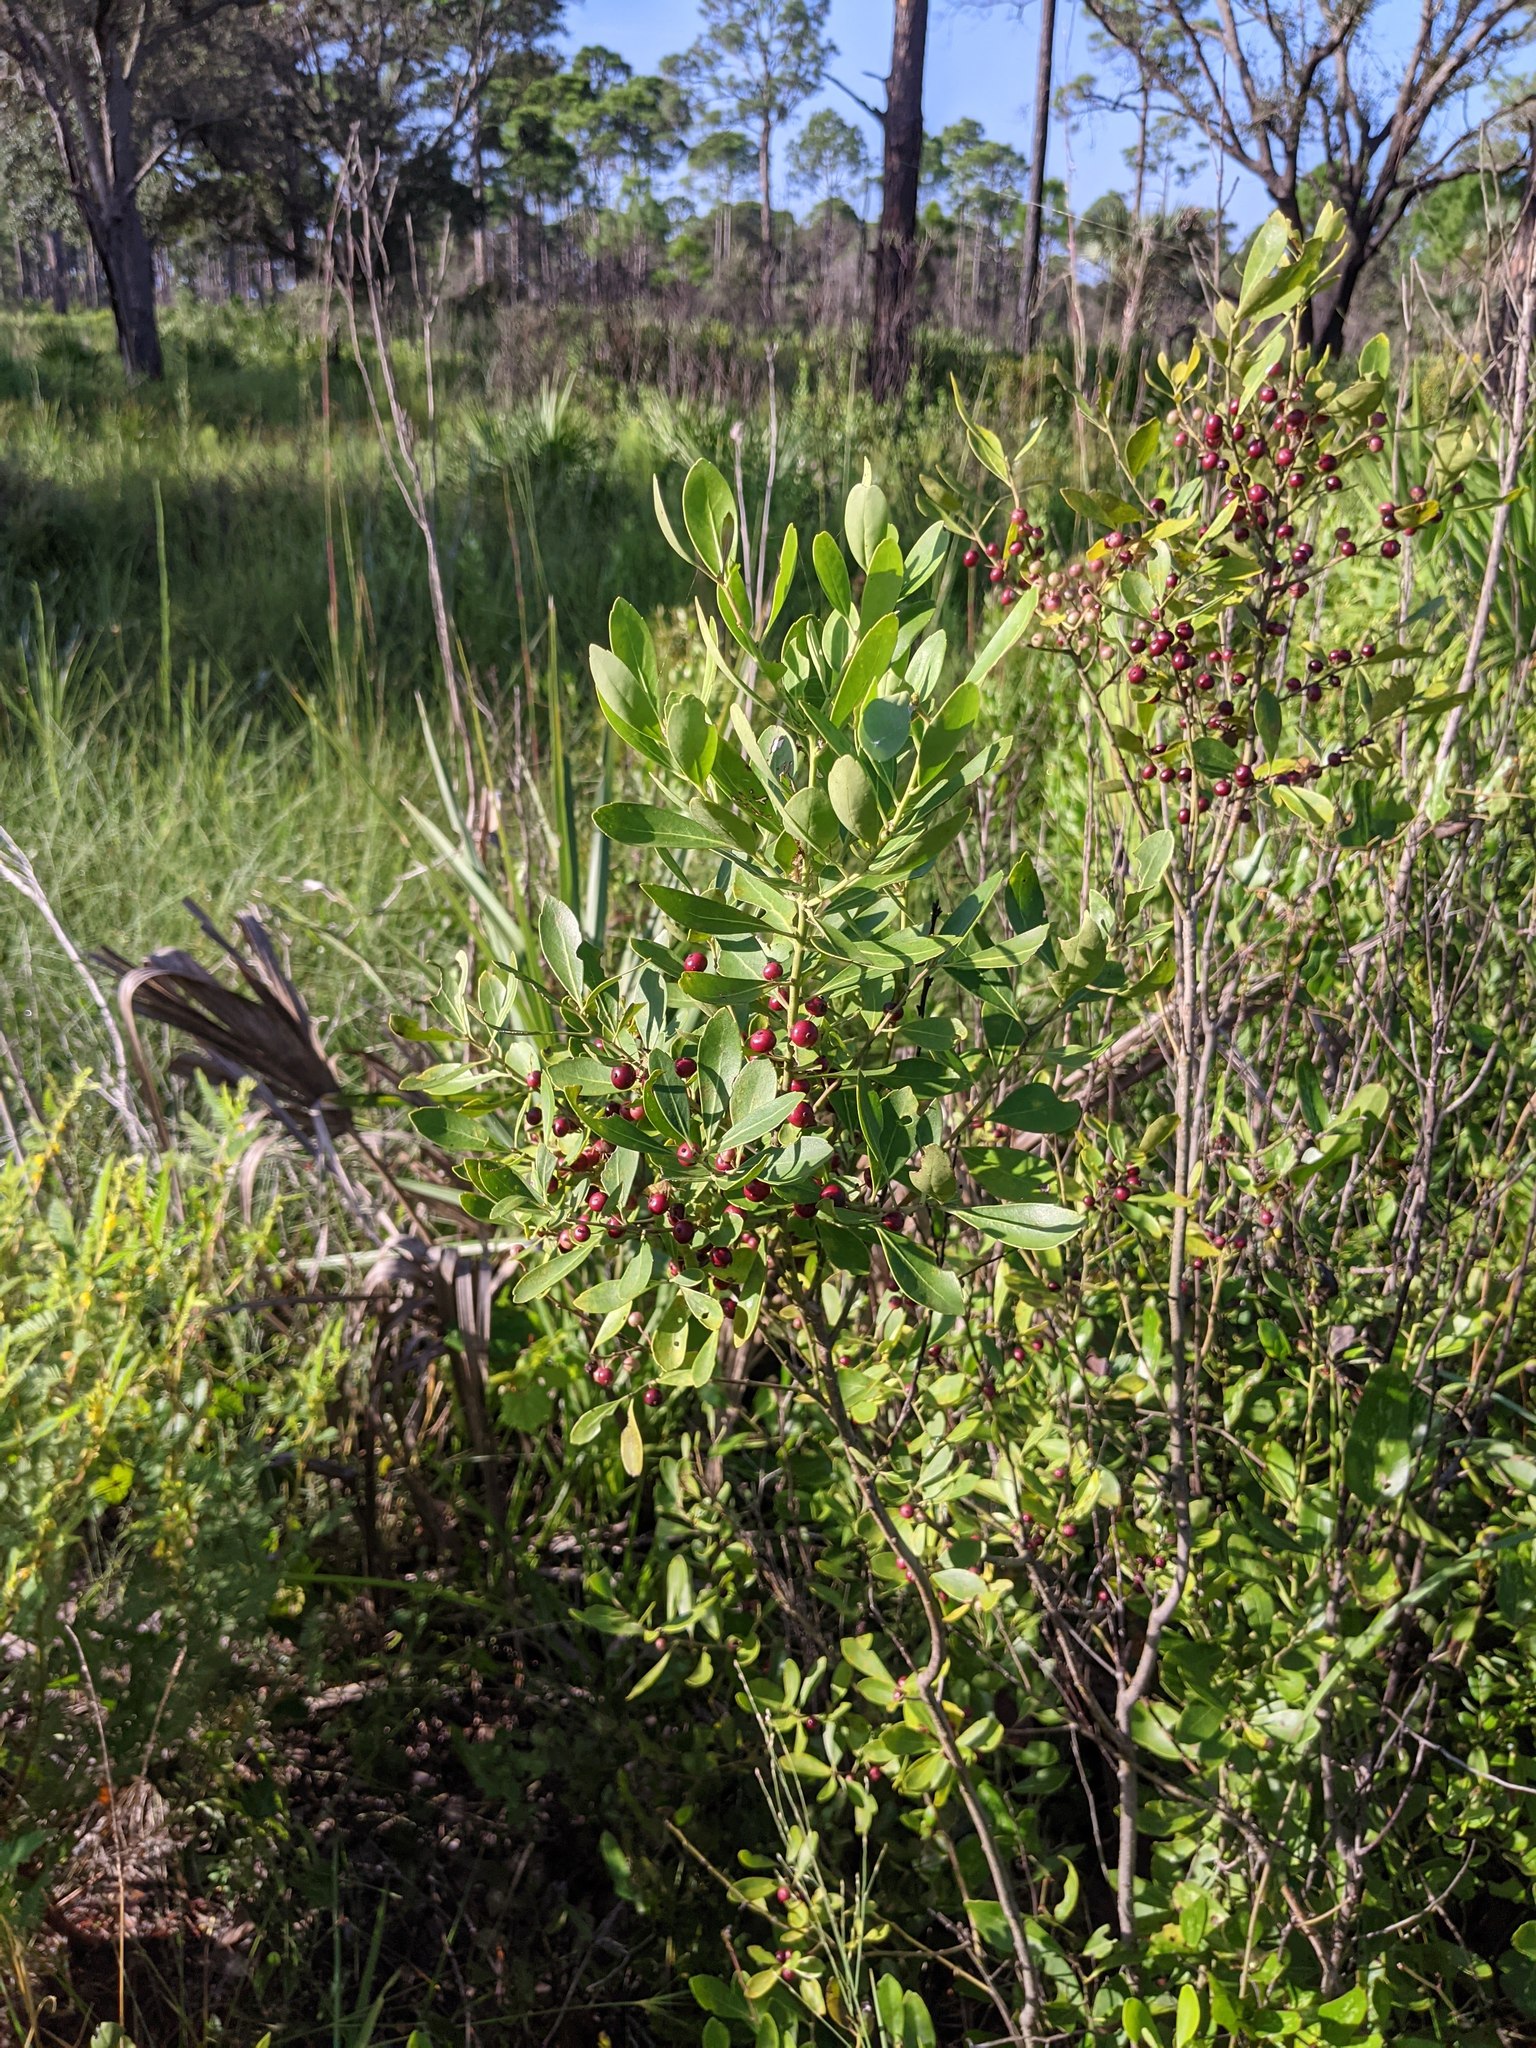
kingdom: Plantae
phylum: Tracheophyta
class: Magnoliopsida
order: Aquifoliales
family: Aquifoliaceae
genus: Ilex
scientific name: Ilex glabra
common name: Bitter gallberry
